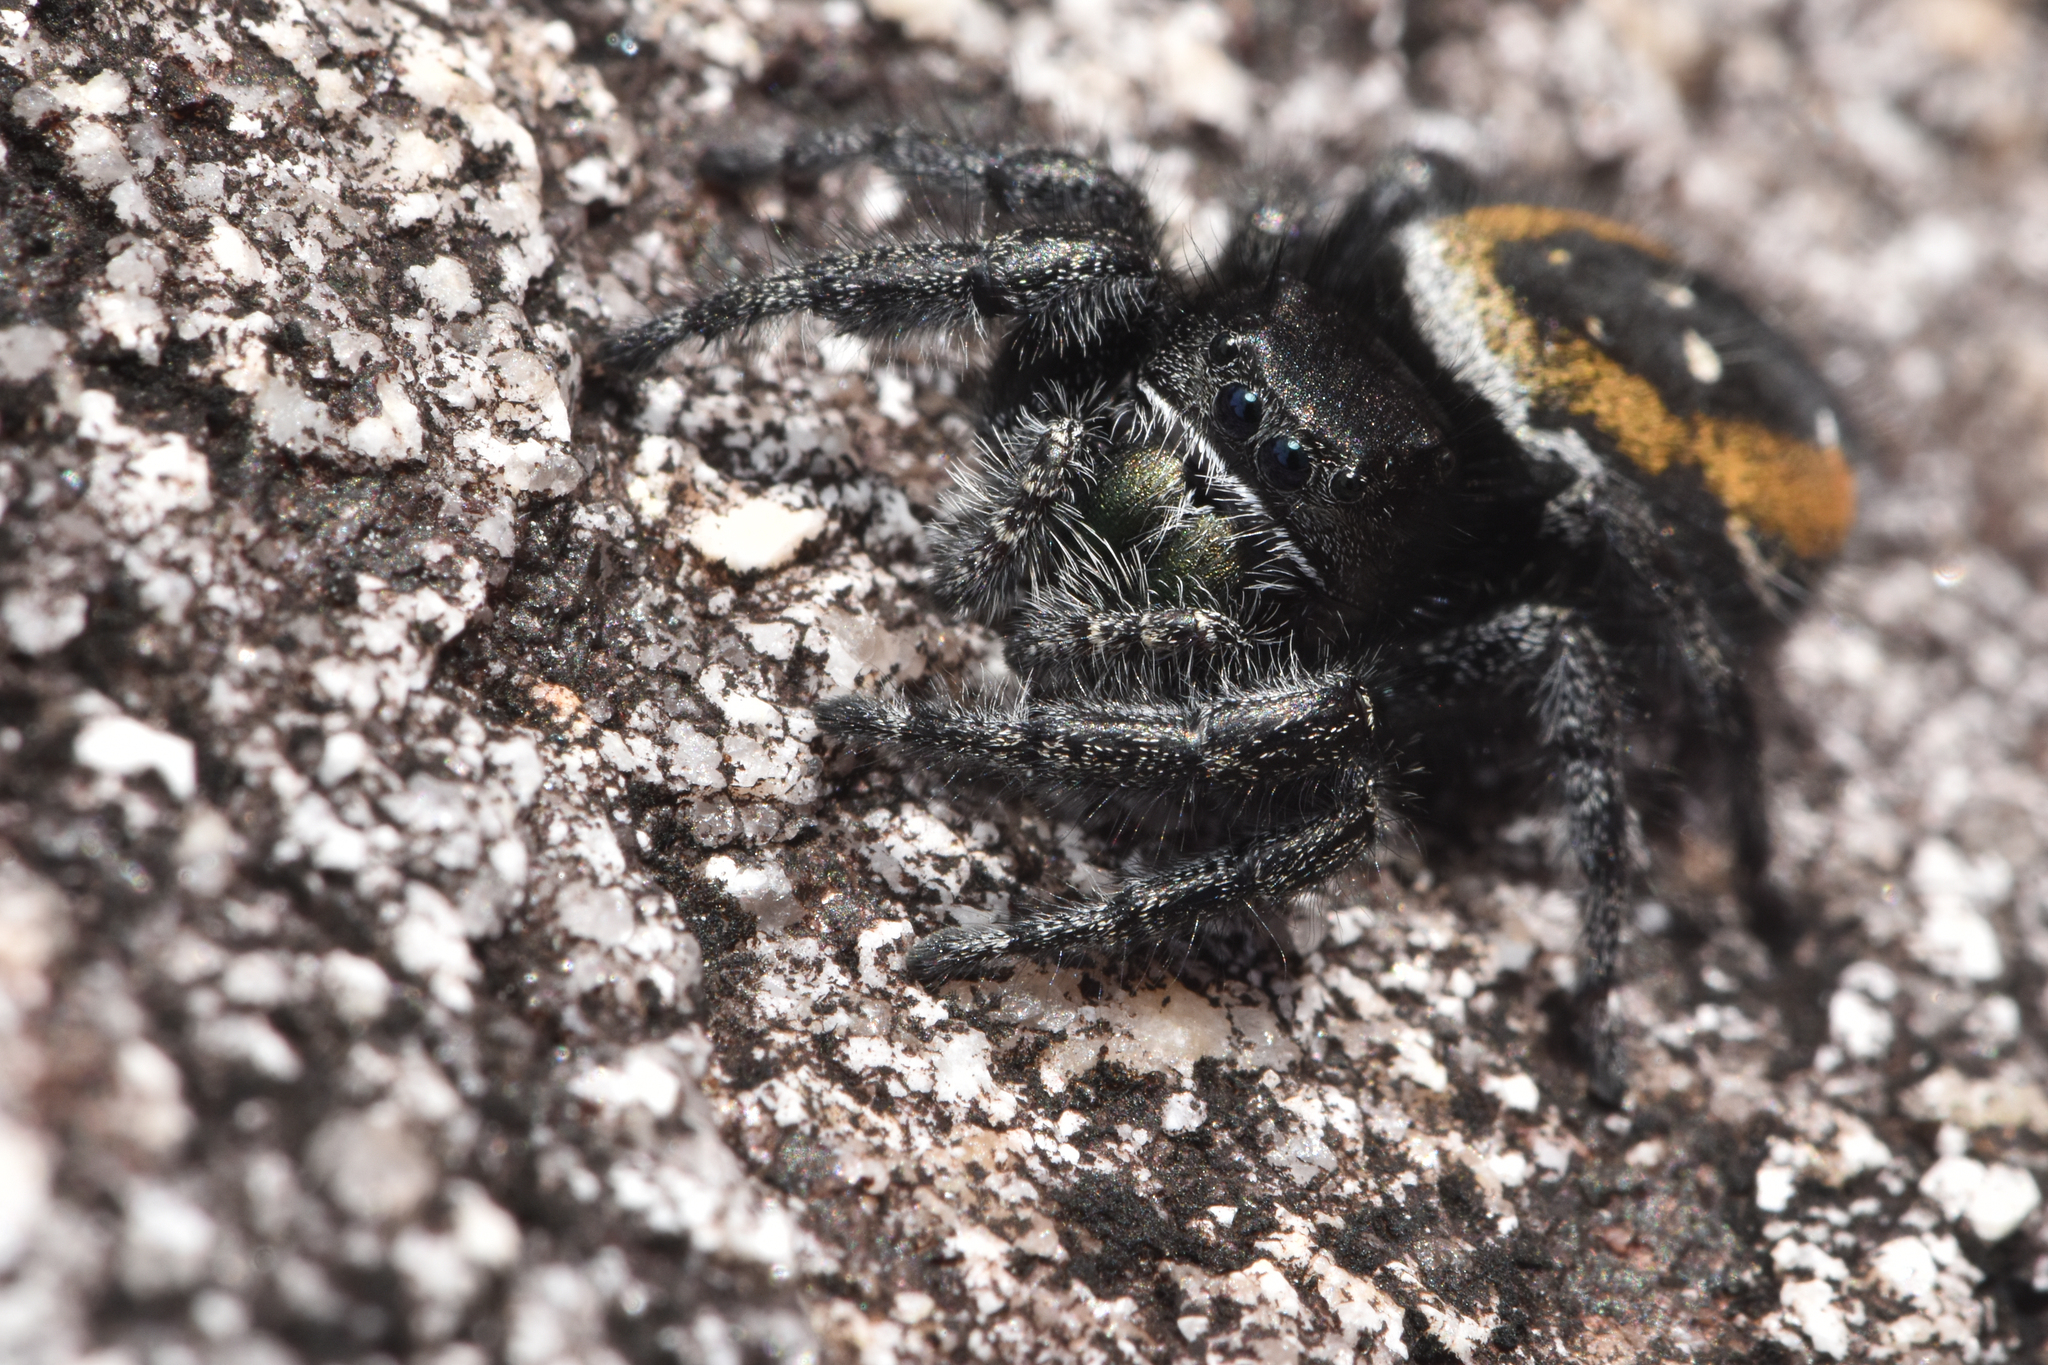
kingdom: Animalia
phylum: Arthropoda
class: Arachnida
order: Araneae
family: Salticidae
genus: Phidippus
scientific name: Phidippus johnsoni
